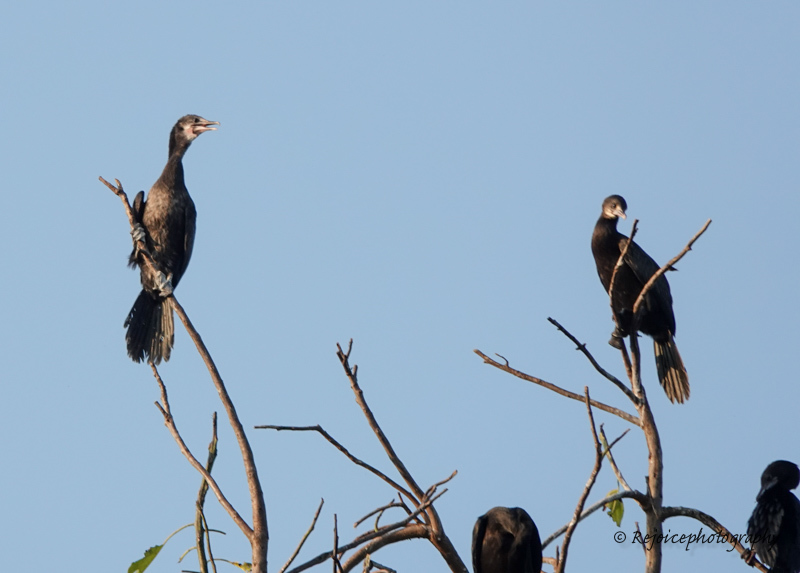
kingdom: Animalia
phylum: Chordata
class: Aves
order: Suliformes
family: Phalacrocoracidae
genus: Microcarbo
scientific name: Microcarbo niger
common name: Little cormorant
